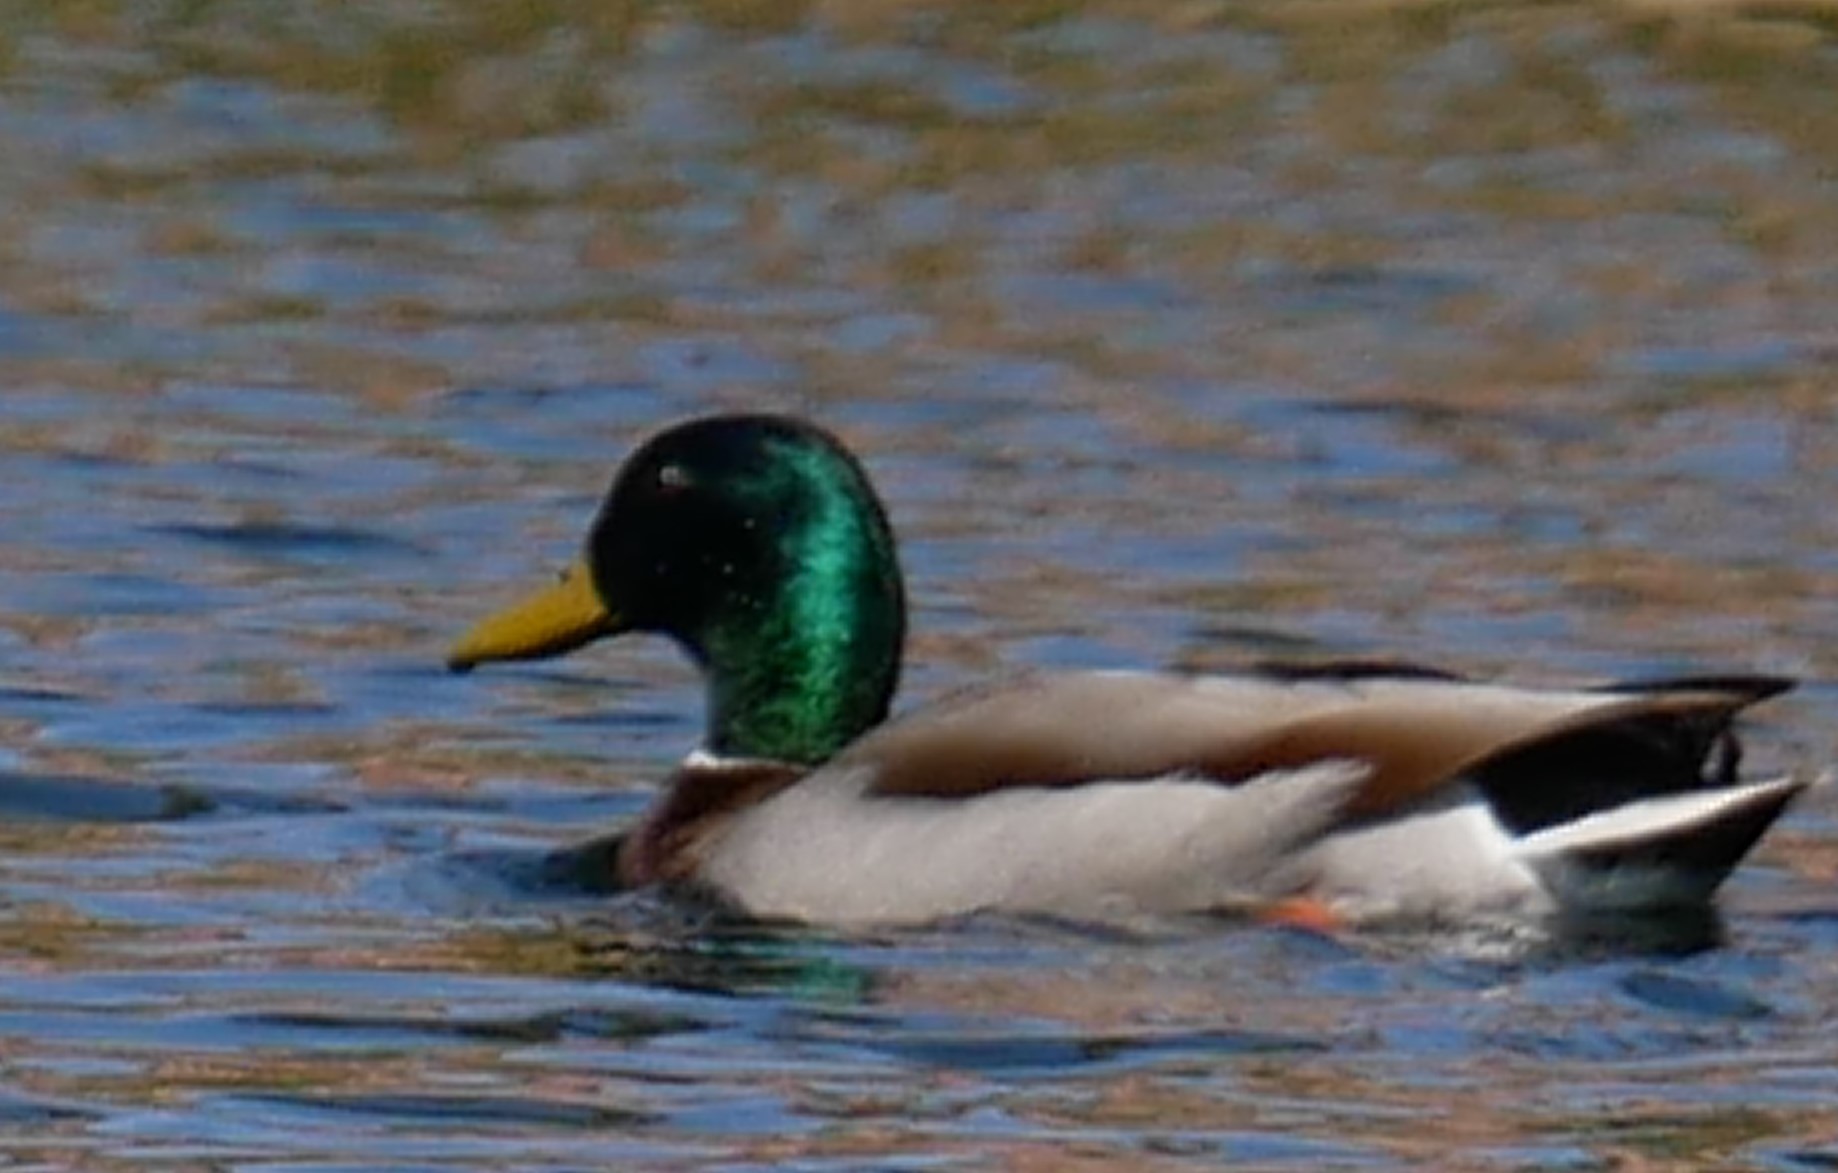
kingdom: Animalia
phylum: Chordata
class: Aves
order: Anseriformes
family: Anatidae
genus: Anas
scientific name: Anas platyrhynchos
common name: Mallard
